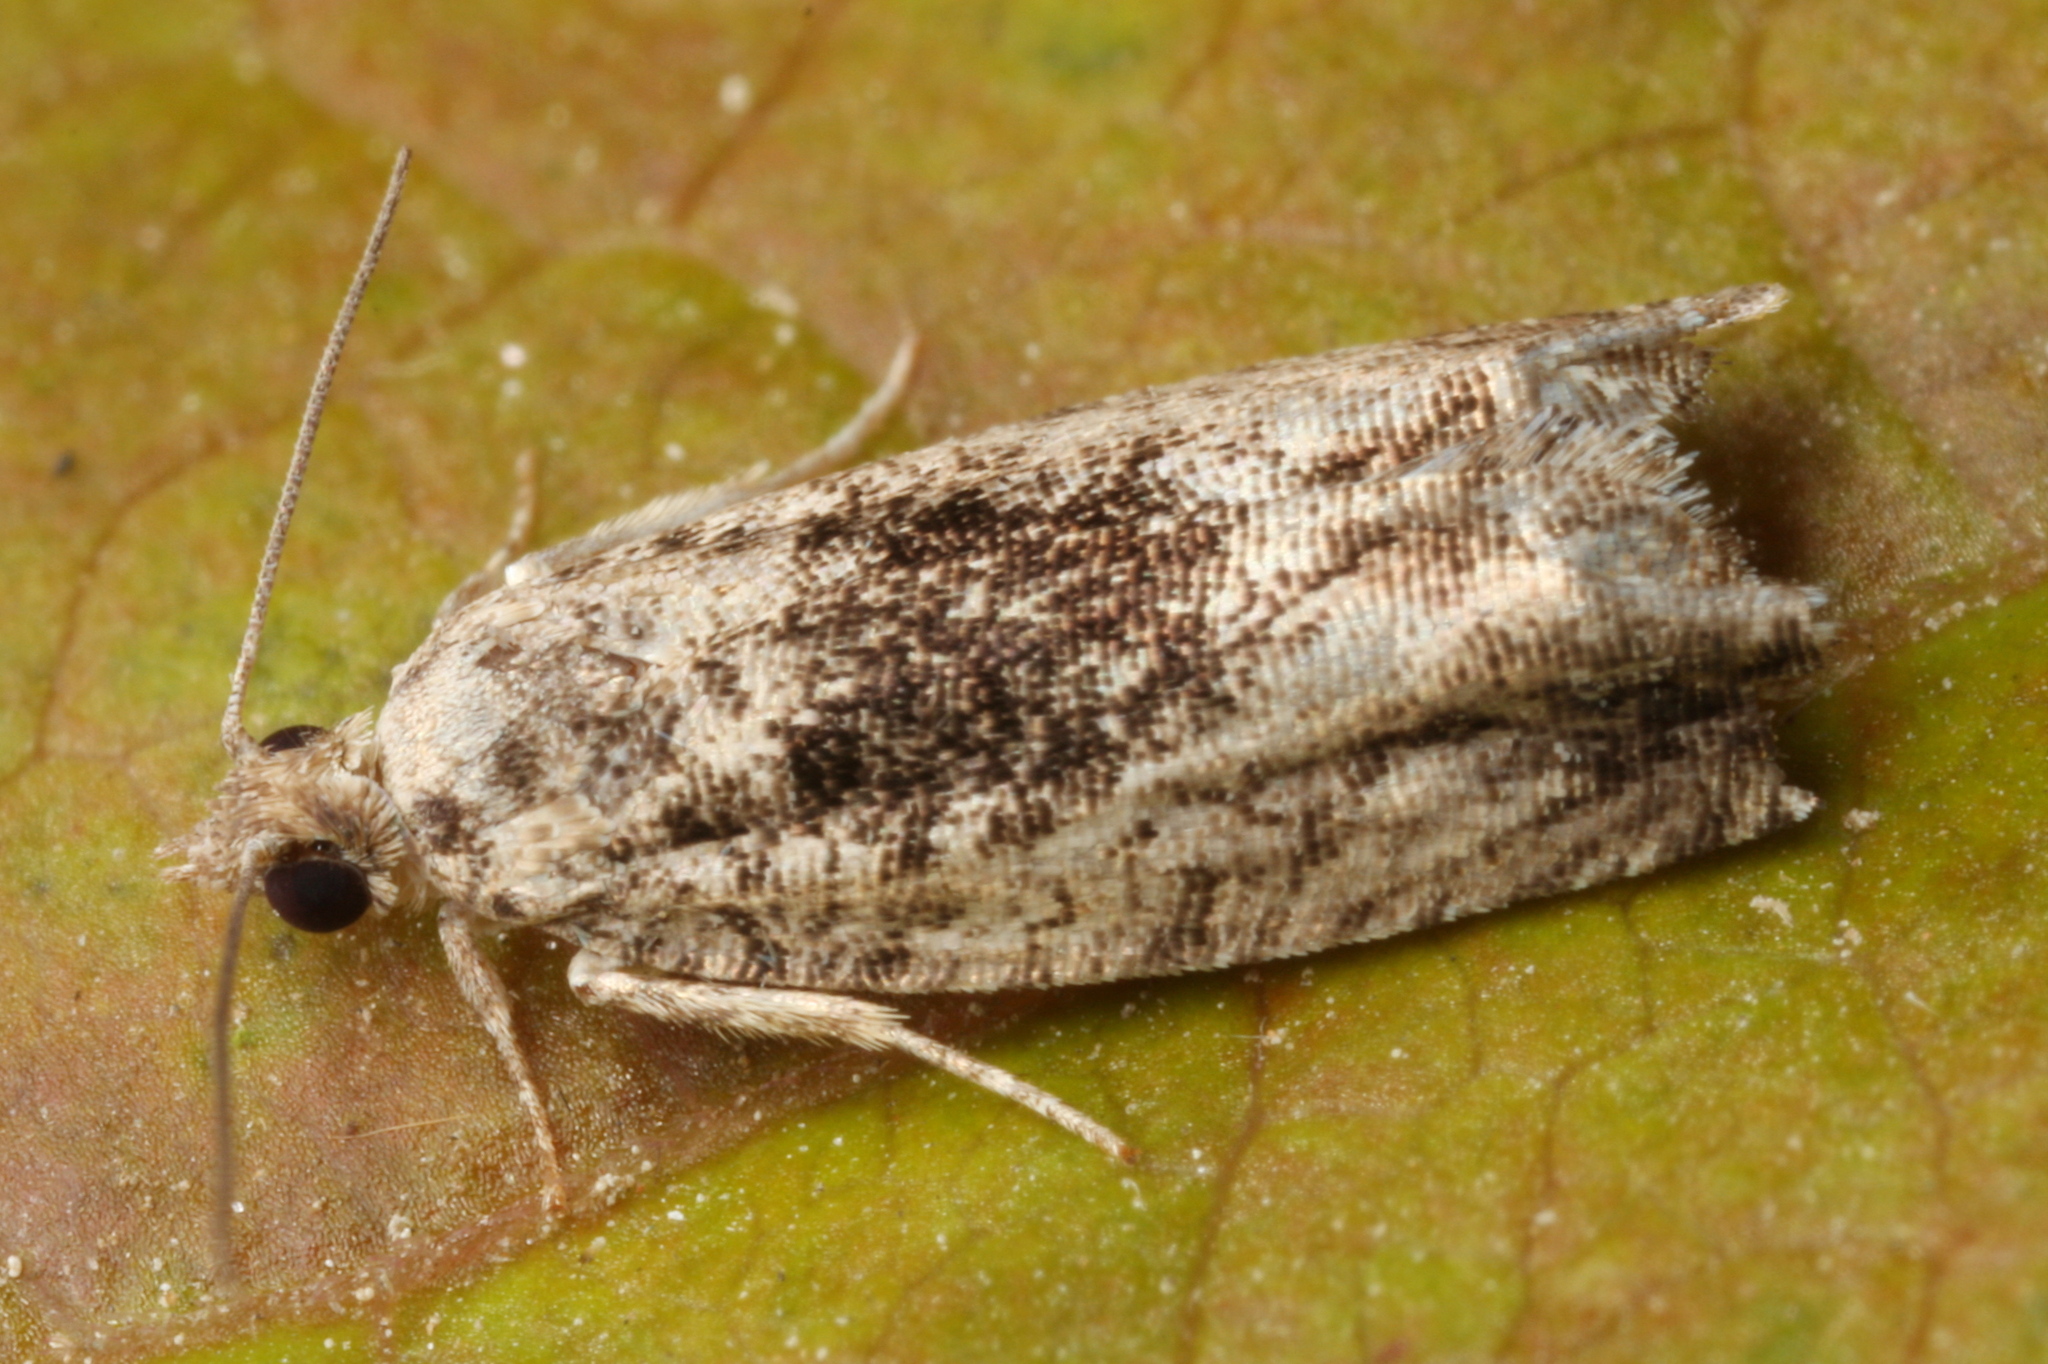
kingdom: Animalia
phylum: Arthropoda
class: Insecta
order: Lepidoptera
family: Tortricidae
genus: Epinotia
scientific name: Epinotia nisella
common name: Grey poplar bell
